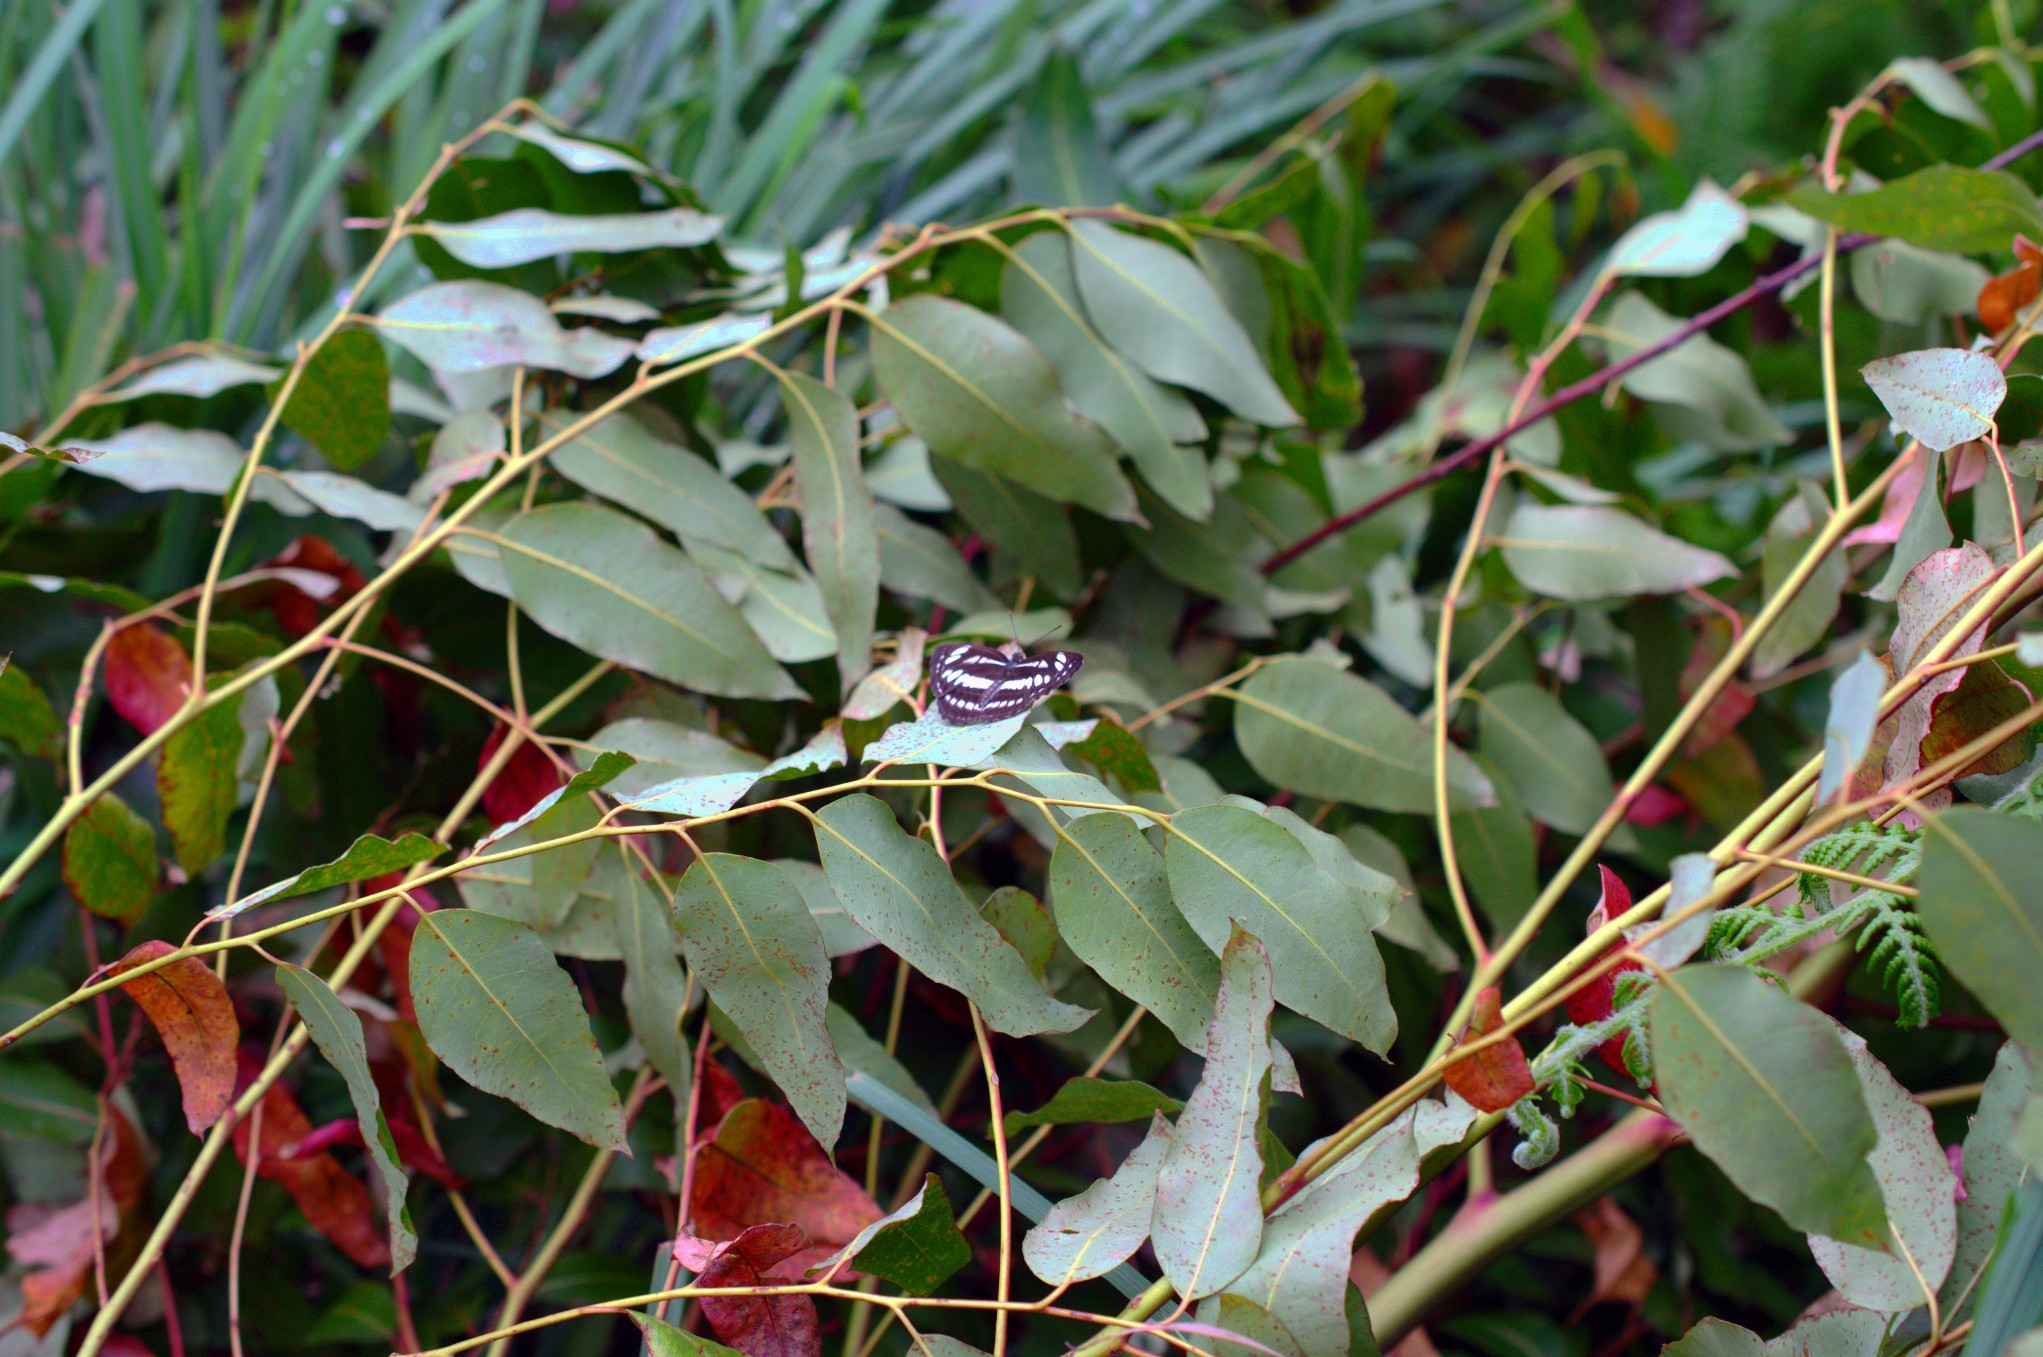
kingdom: Animalia
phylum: Arthropoda
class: Insecta
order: Lepidoptera
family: Nymphalidae
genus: Neptis
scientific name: Neptis hylas
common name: Common sailer
